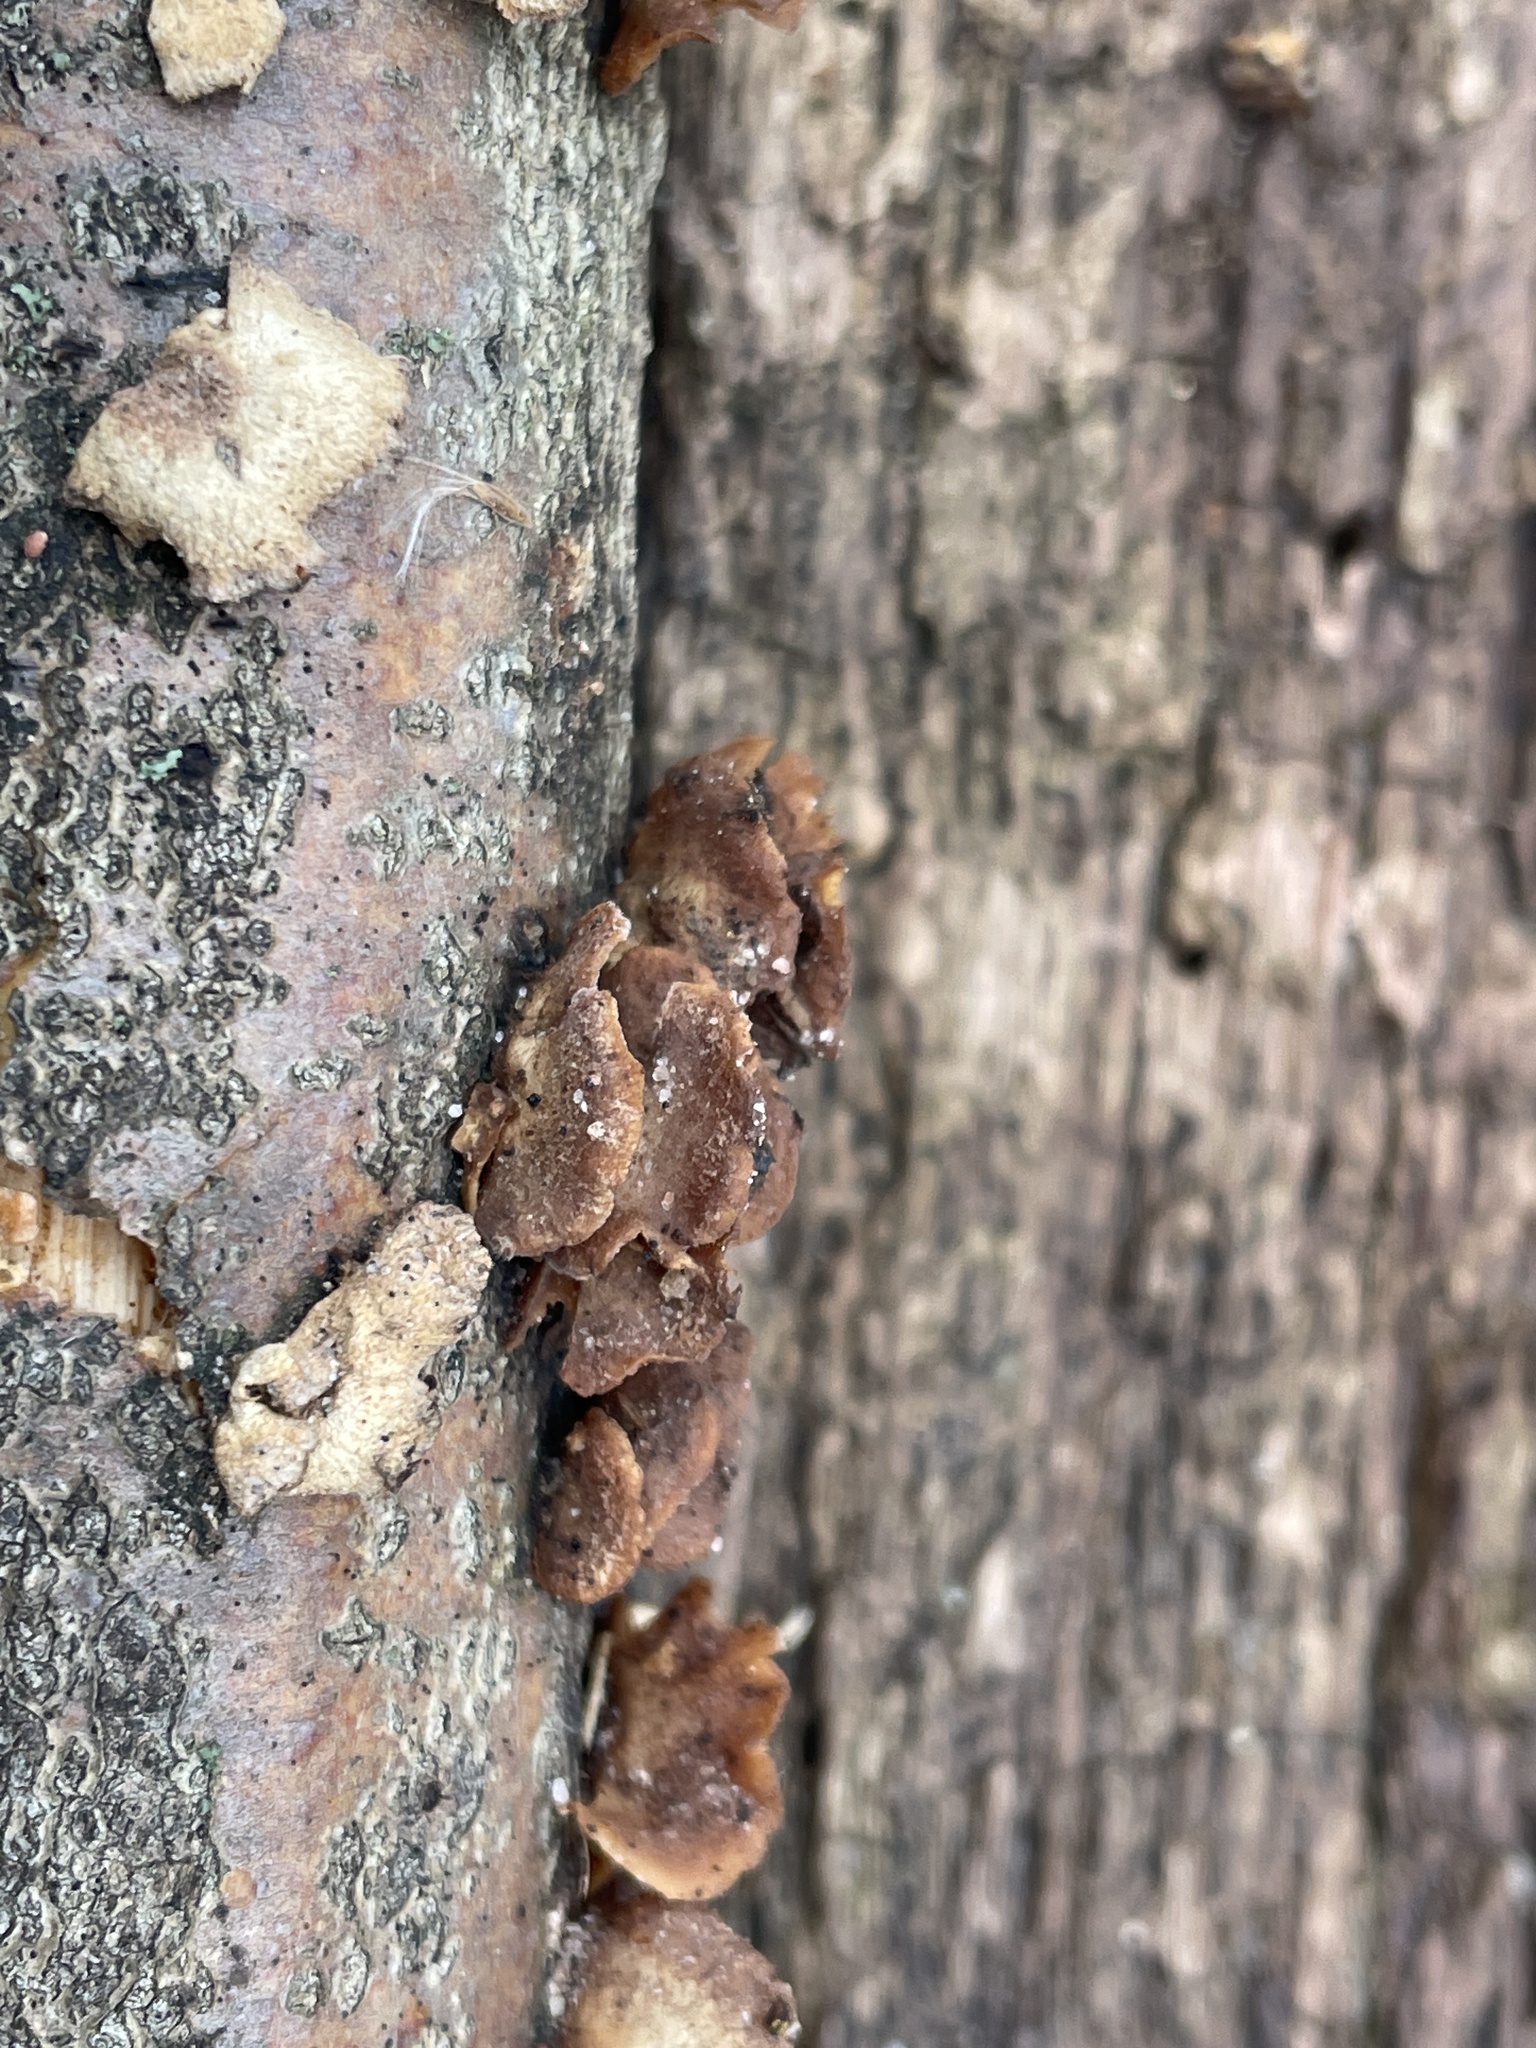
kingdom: Fungi
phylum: Basidiomycota
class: Agaricomycetes
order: Agaricales
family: Mycenaceae
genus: Panellus
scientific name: Panellus stipticus
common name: Bitter oysterling
